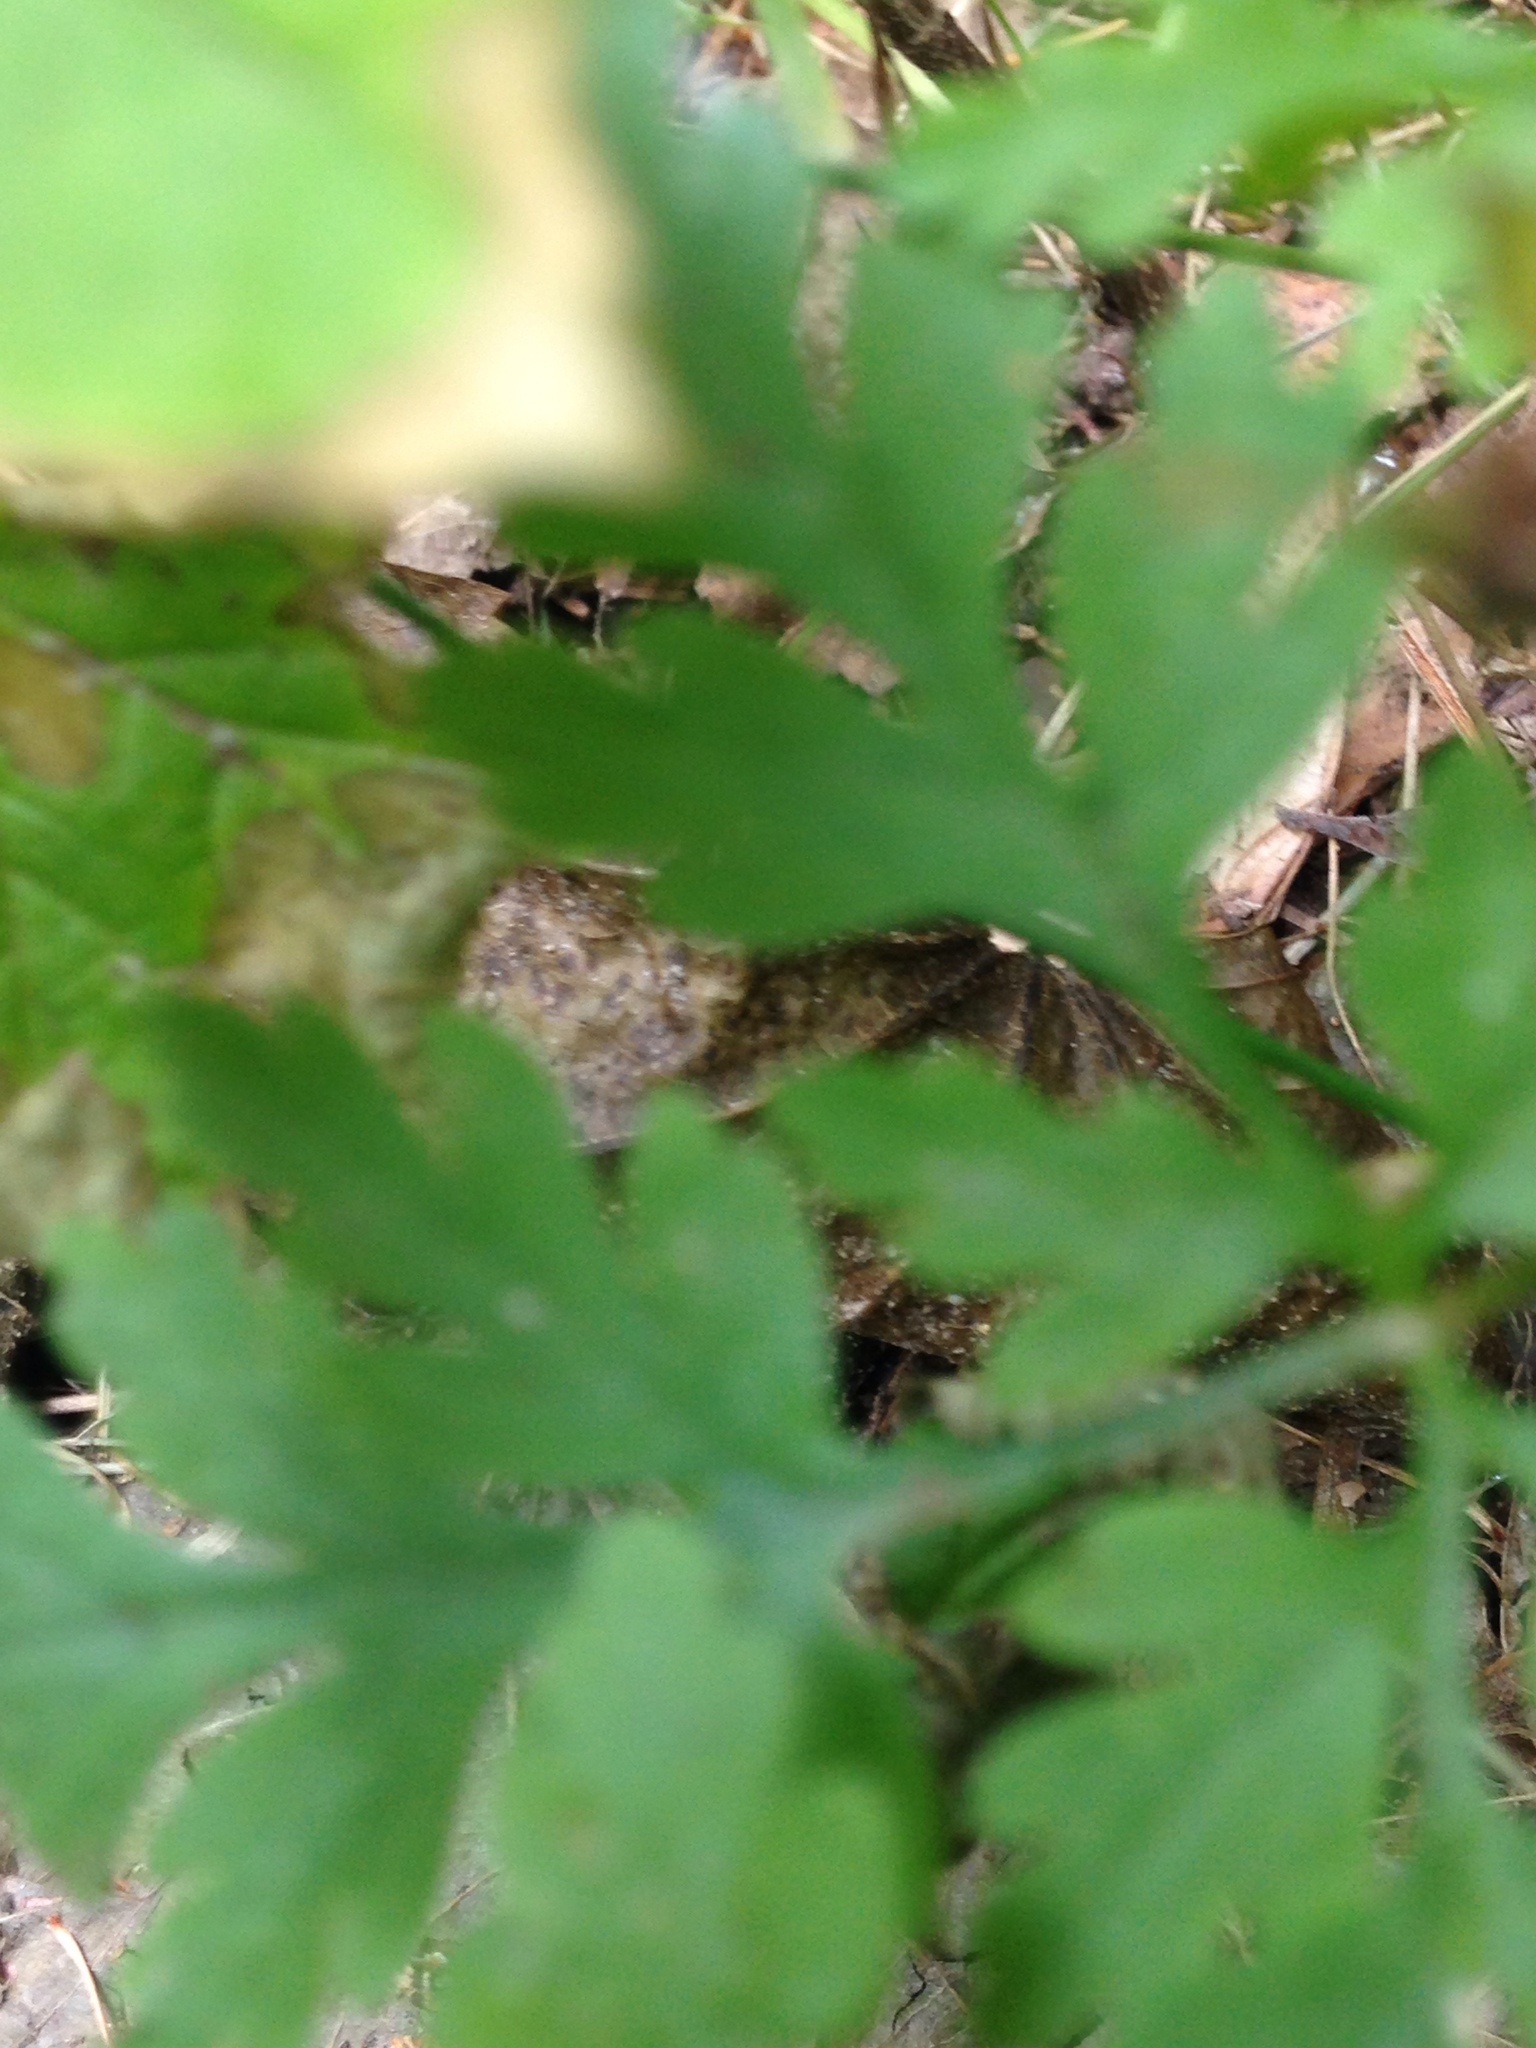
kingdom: Plantae
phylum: Tracheophyta
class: Magnoliopsida
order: Geraniales
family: Geraniaceae
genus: Geranium
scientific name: Geranium robertianum
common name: Herb-robert
